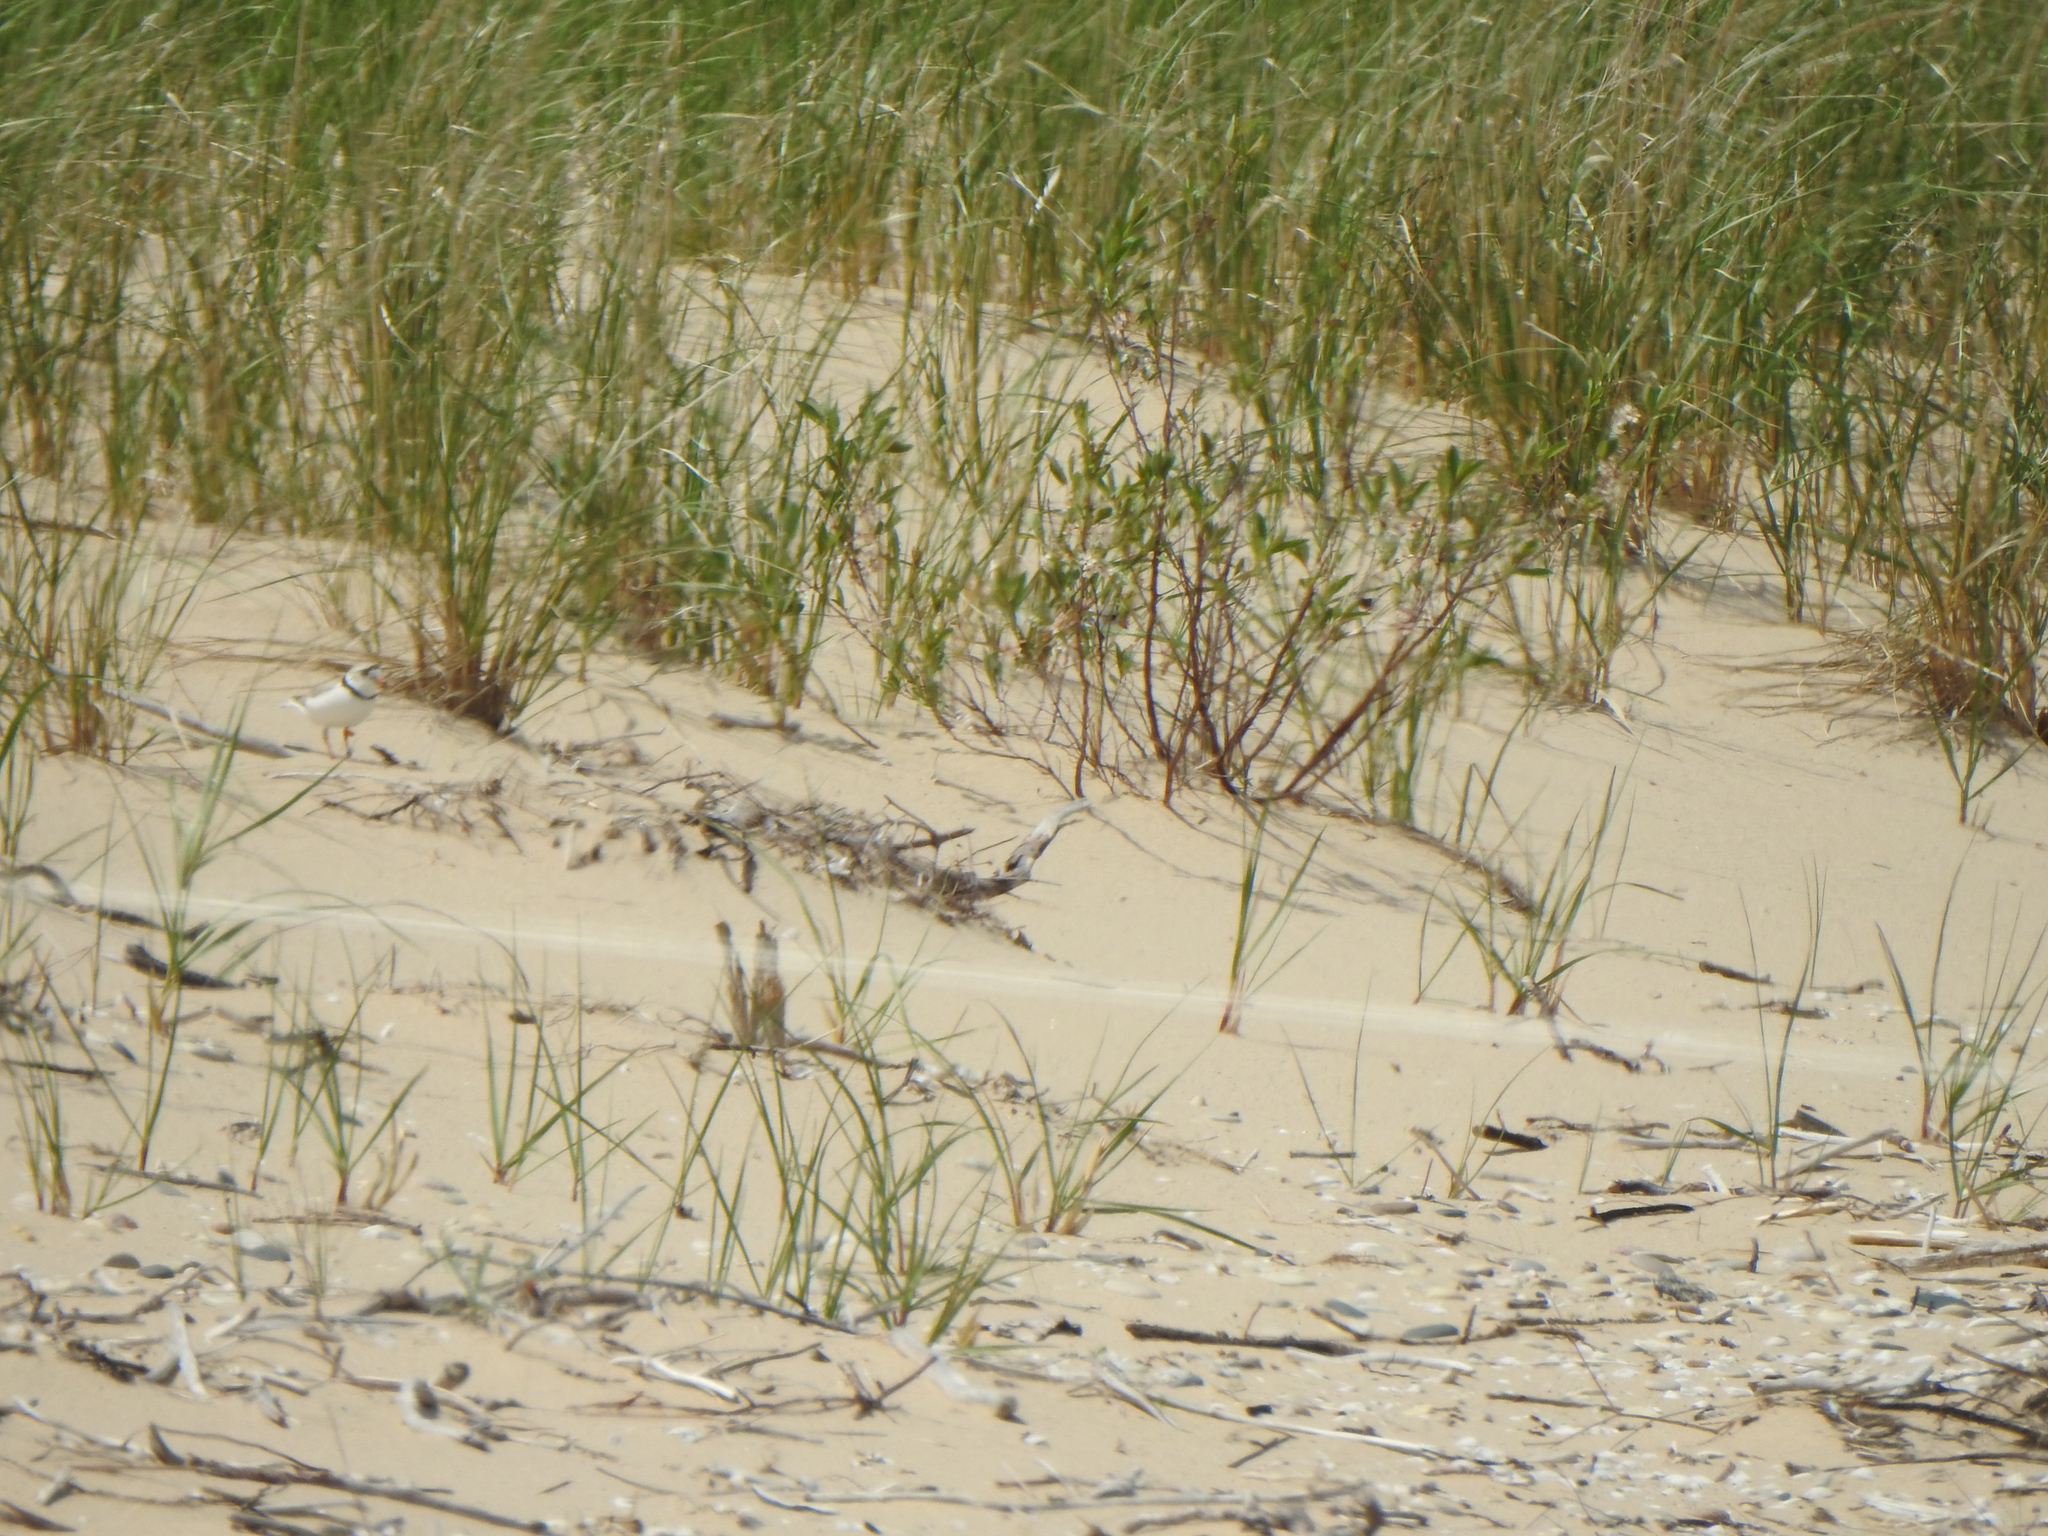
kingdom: Animalia
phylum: Chordata
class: Aves
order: Charadriiformes
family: Charadriidae
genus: Charadrius
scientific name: Charadrius melodus
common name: Piping plover
